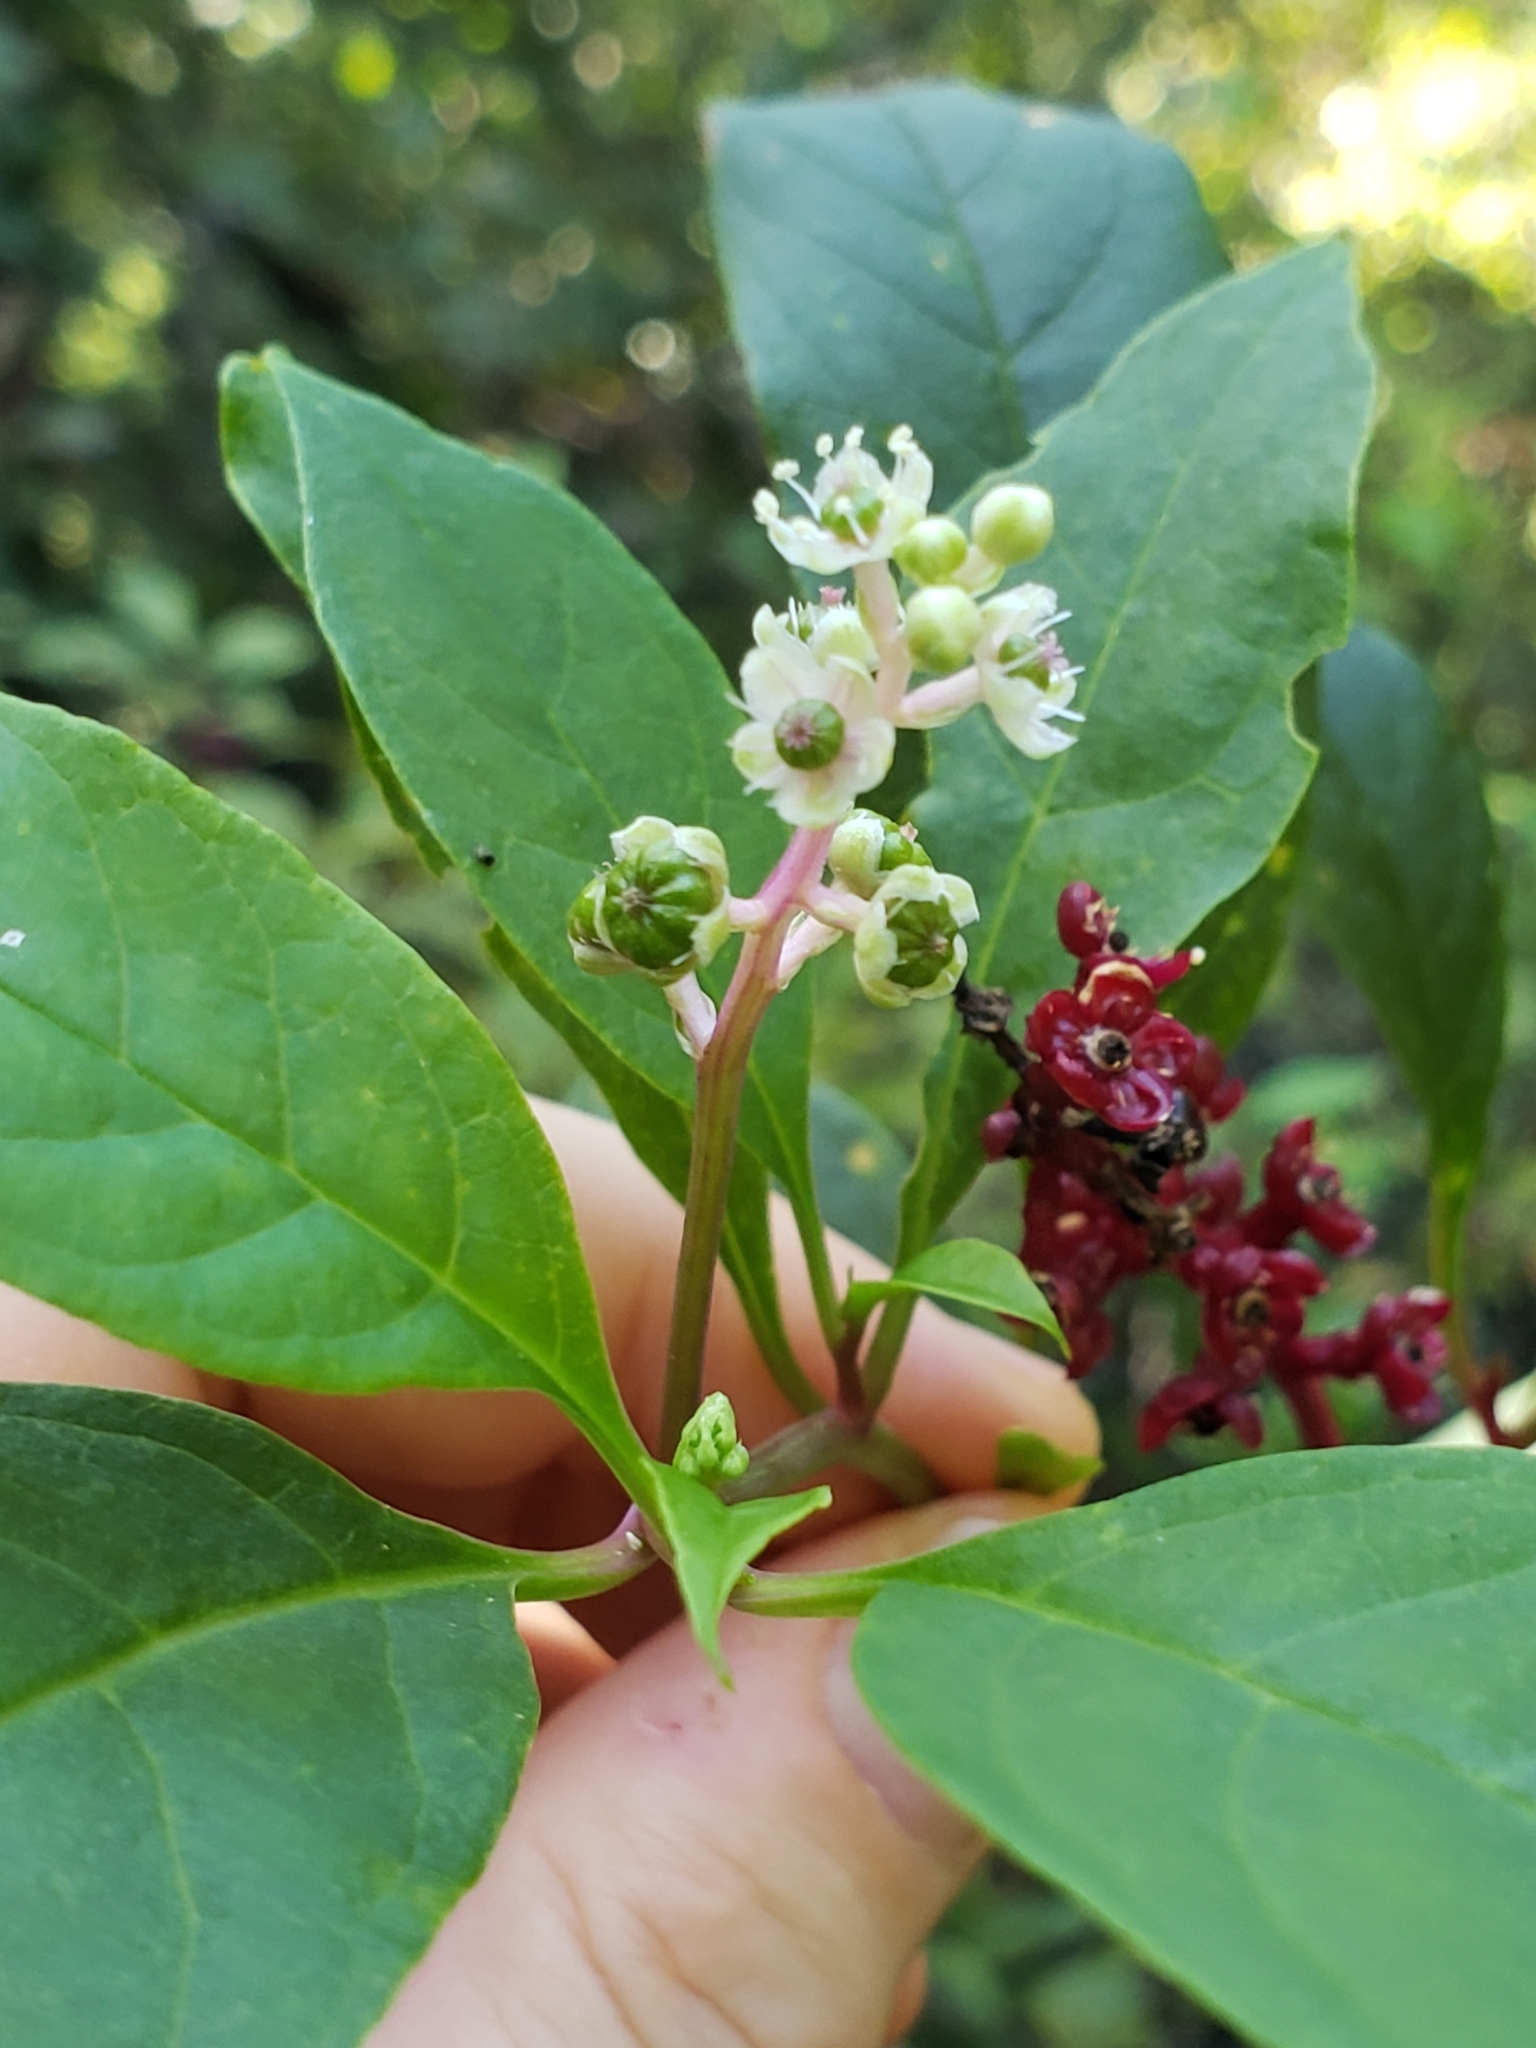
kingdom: Plantae
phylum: Tracheophyta
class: Magnoliopsida
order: Caryophyllales
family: Phytolaccaceae
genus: Phytolacca
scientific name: Phytolacca americana
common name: American pokeweed
